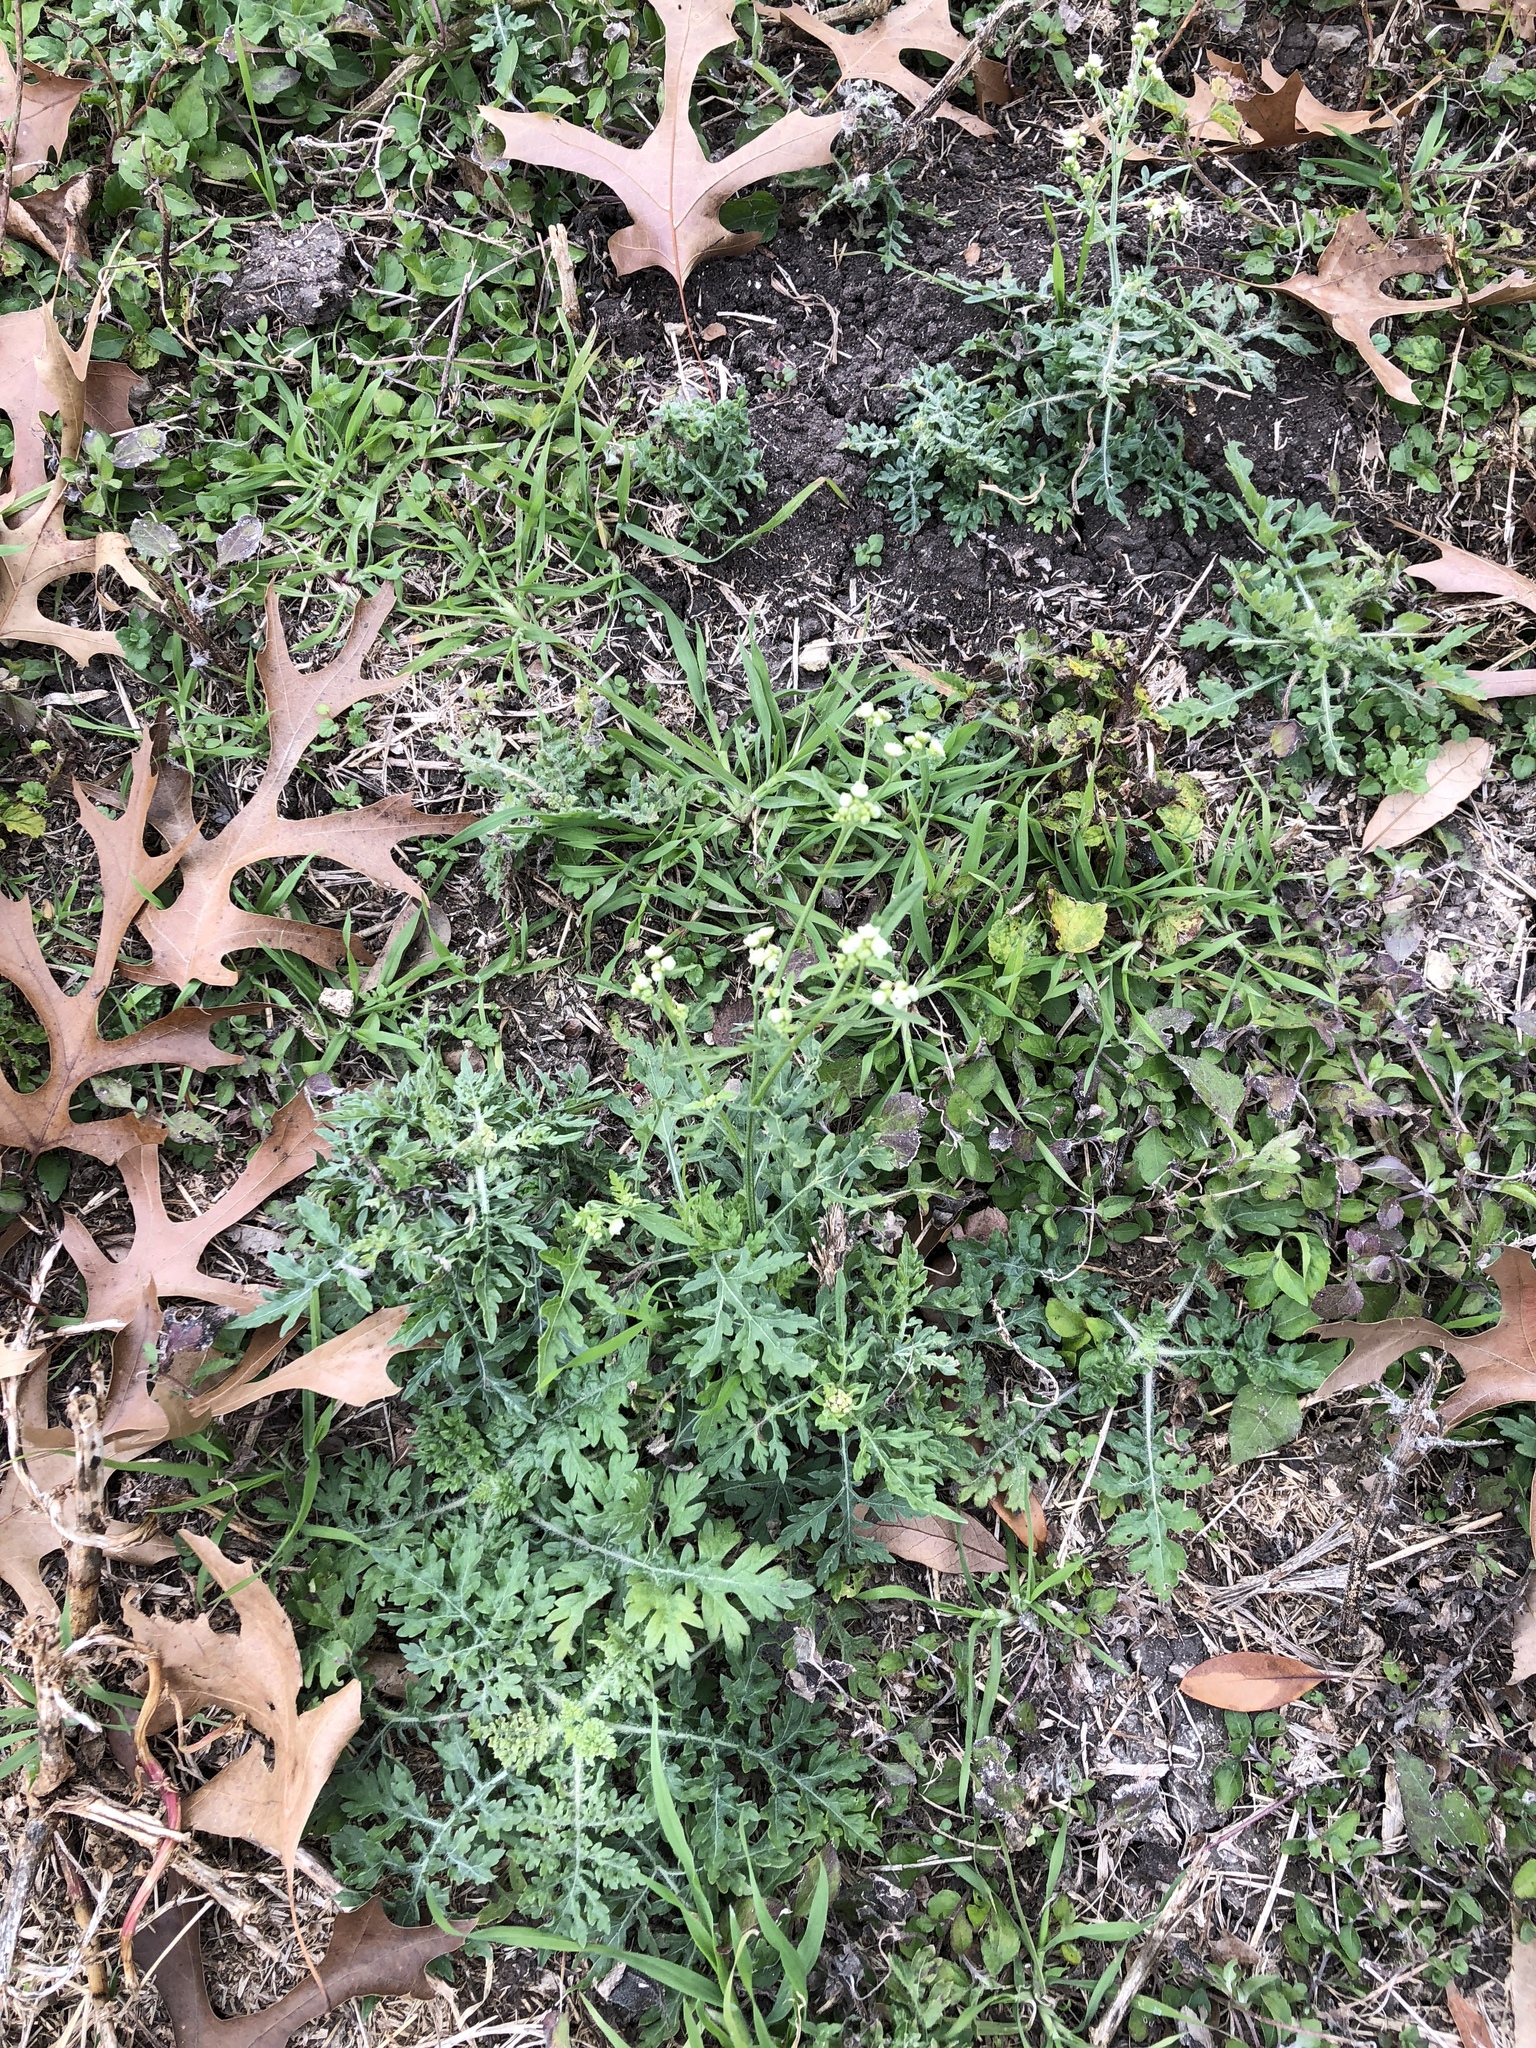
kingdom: Plantae
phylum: Tracheophyta
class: Magnoliopsida
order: Asterales
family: Asteraceae
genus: Parthenium
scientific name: Parthenium hysterophorus
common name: Santa maria feverfew
